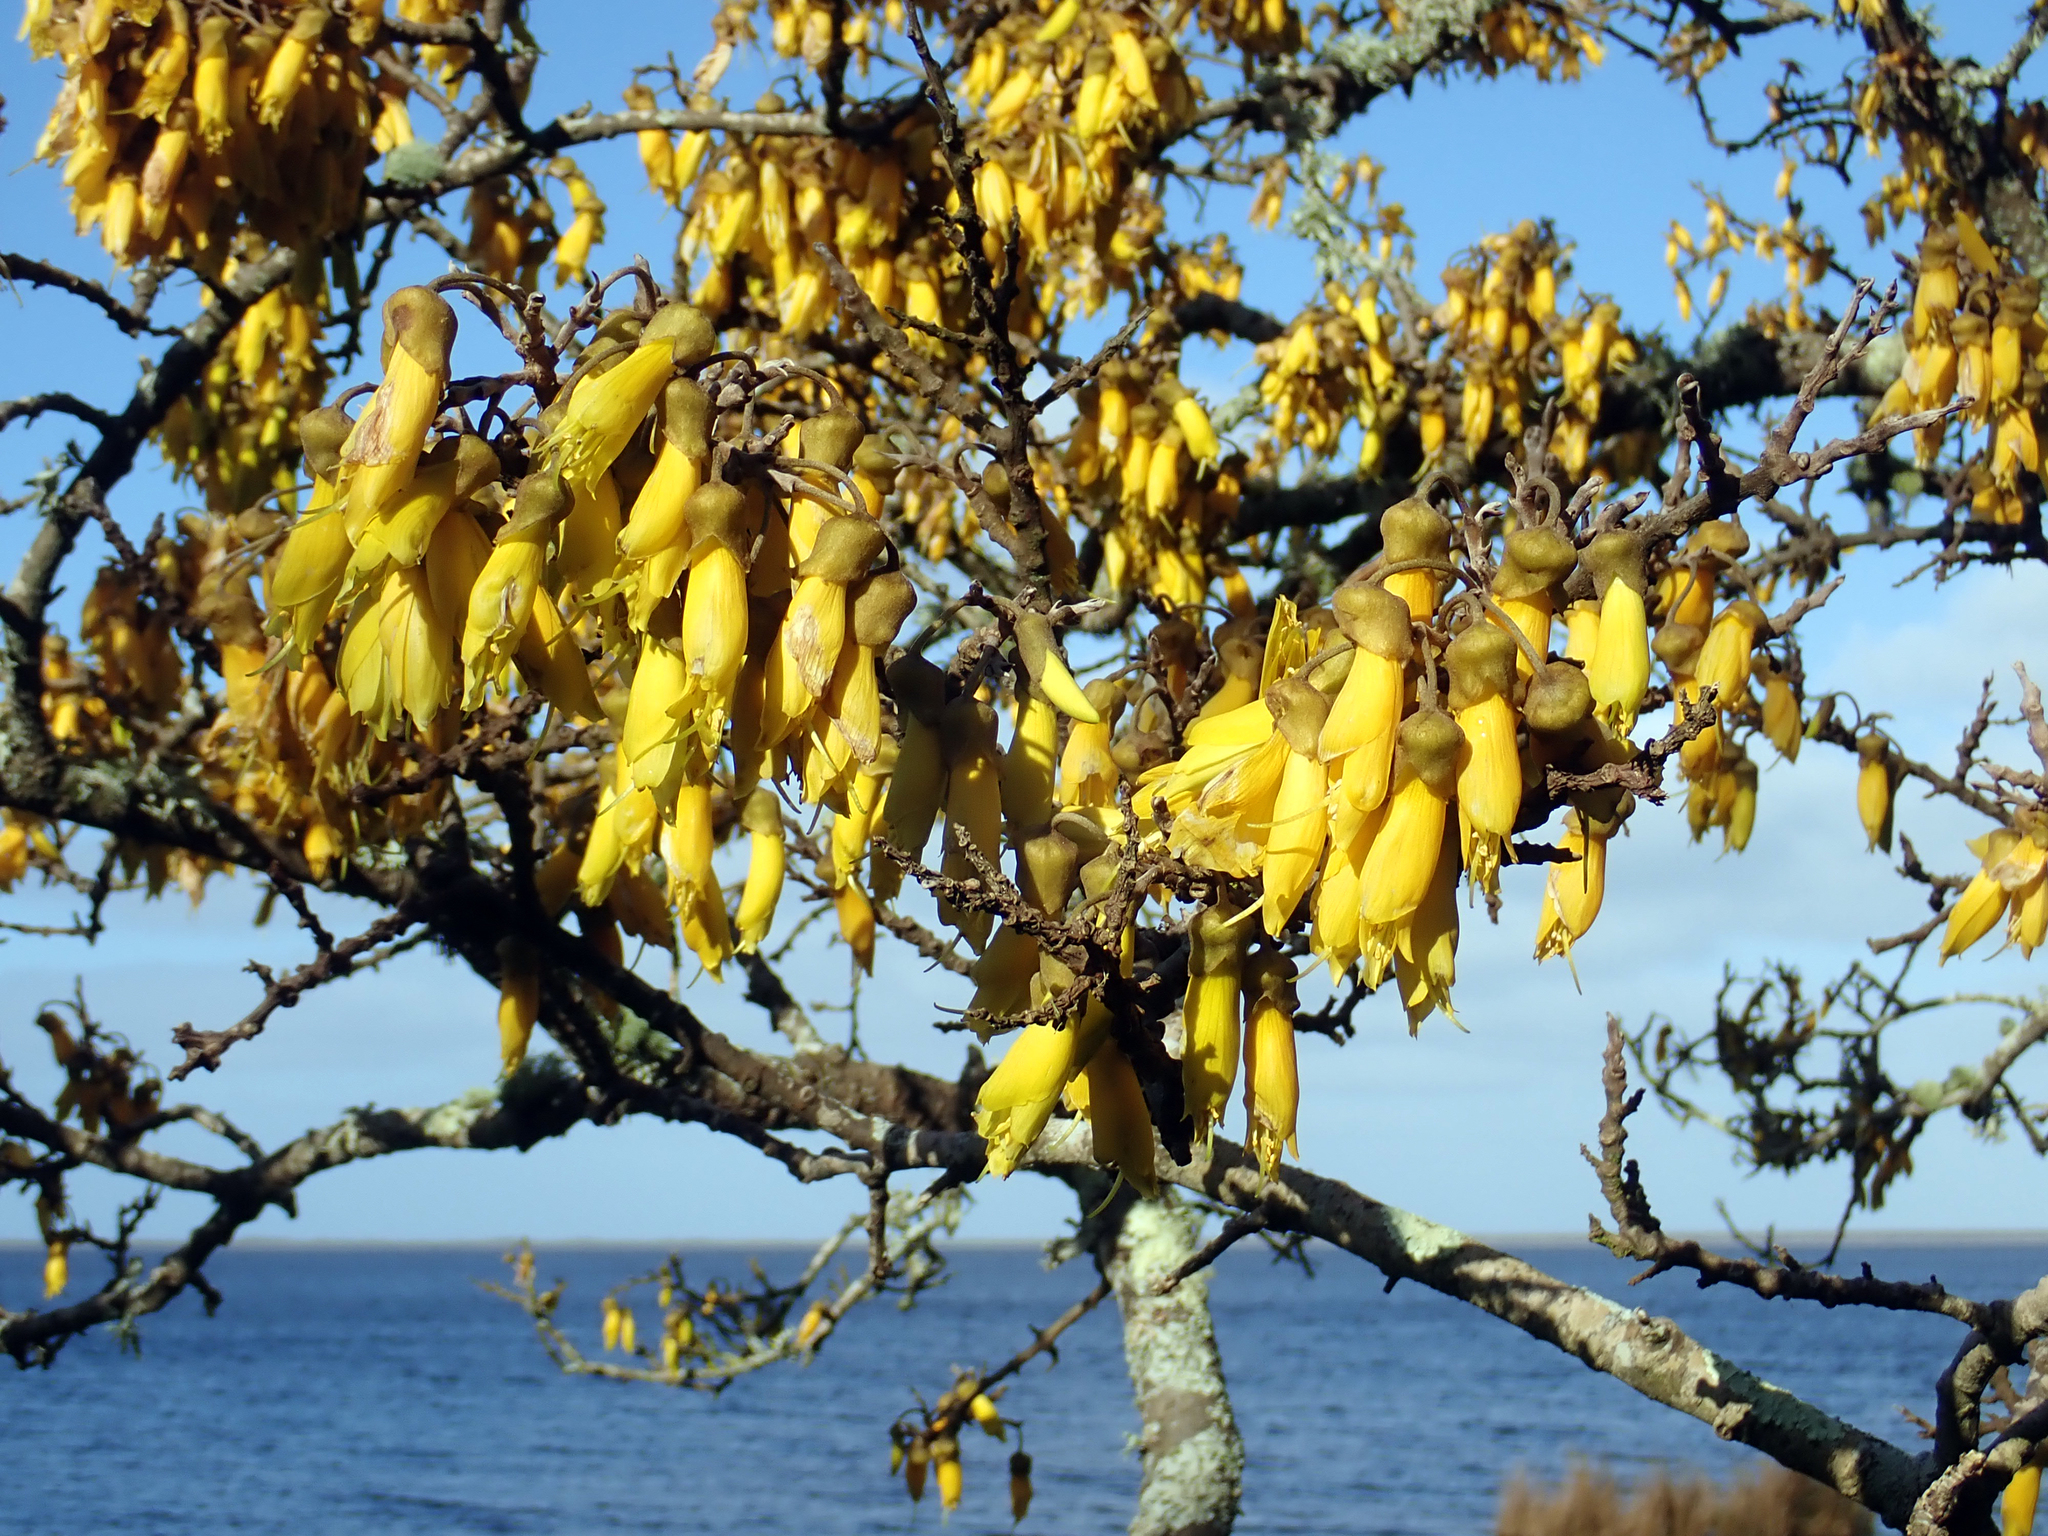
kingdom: Plantae
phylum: Tracheophyta
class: Magnoliopsida
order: Fabales
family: Fabaceae
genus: Sophora
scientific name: Sophora chathamica
